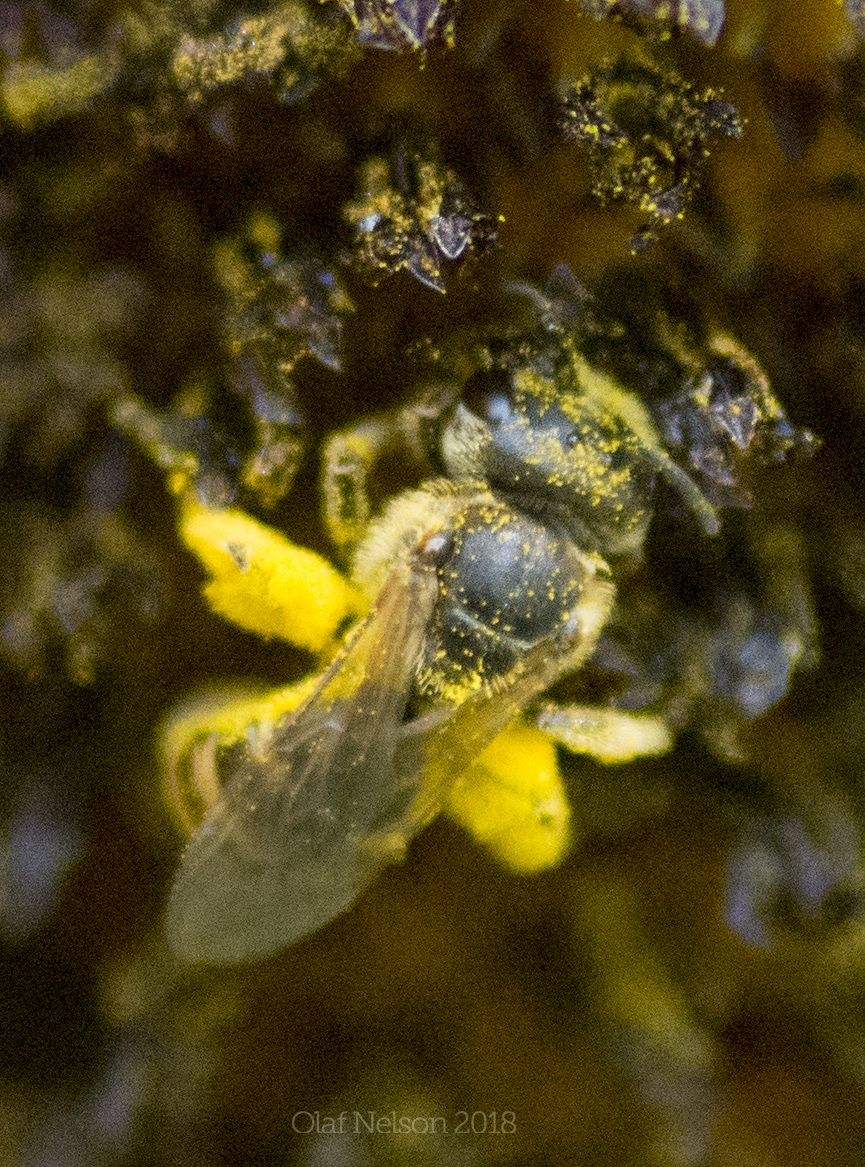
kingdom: Animalia
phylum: Arthropoda
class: Insecta
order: Hymenoptera
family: Halictidae
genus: Halictus
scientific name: Halictus ligatus
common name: Ligated furrow bee
